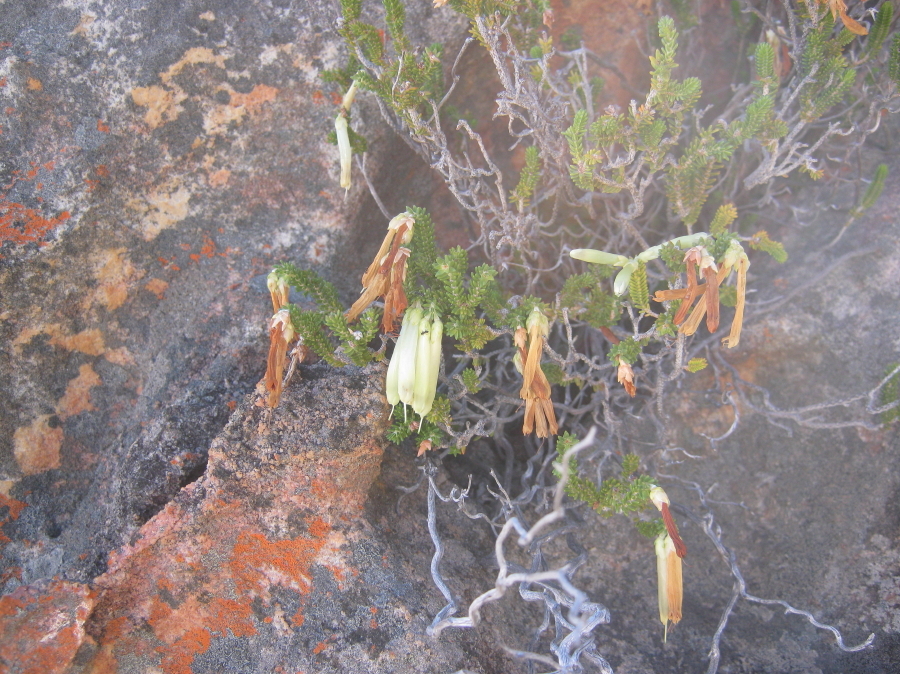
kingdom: Plantae
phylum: Tracheophyta
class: Magnoliopsida
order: Ericales
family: Ericaceae
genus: Erica
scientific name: Erica viridiflora
